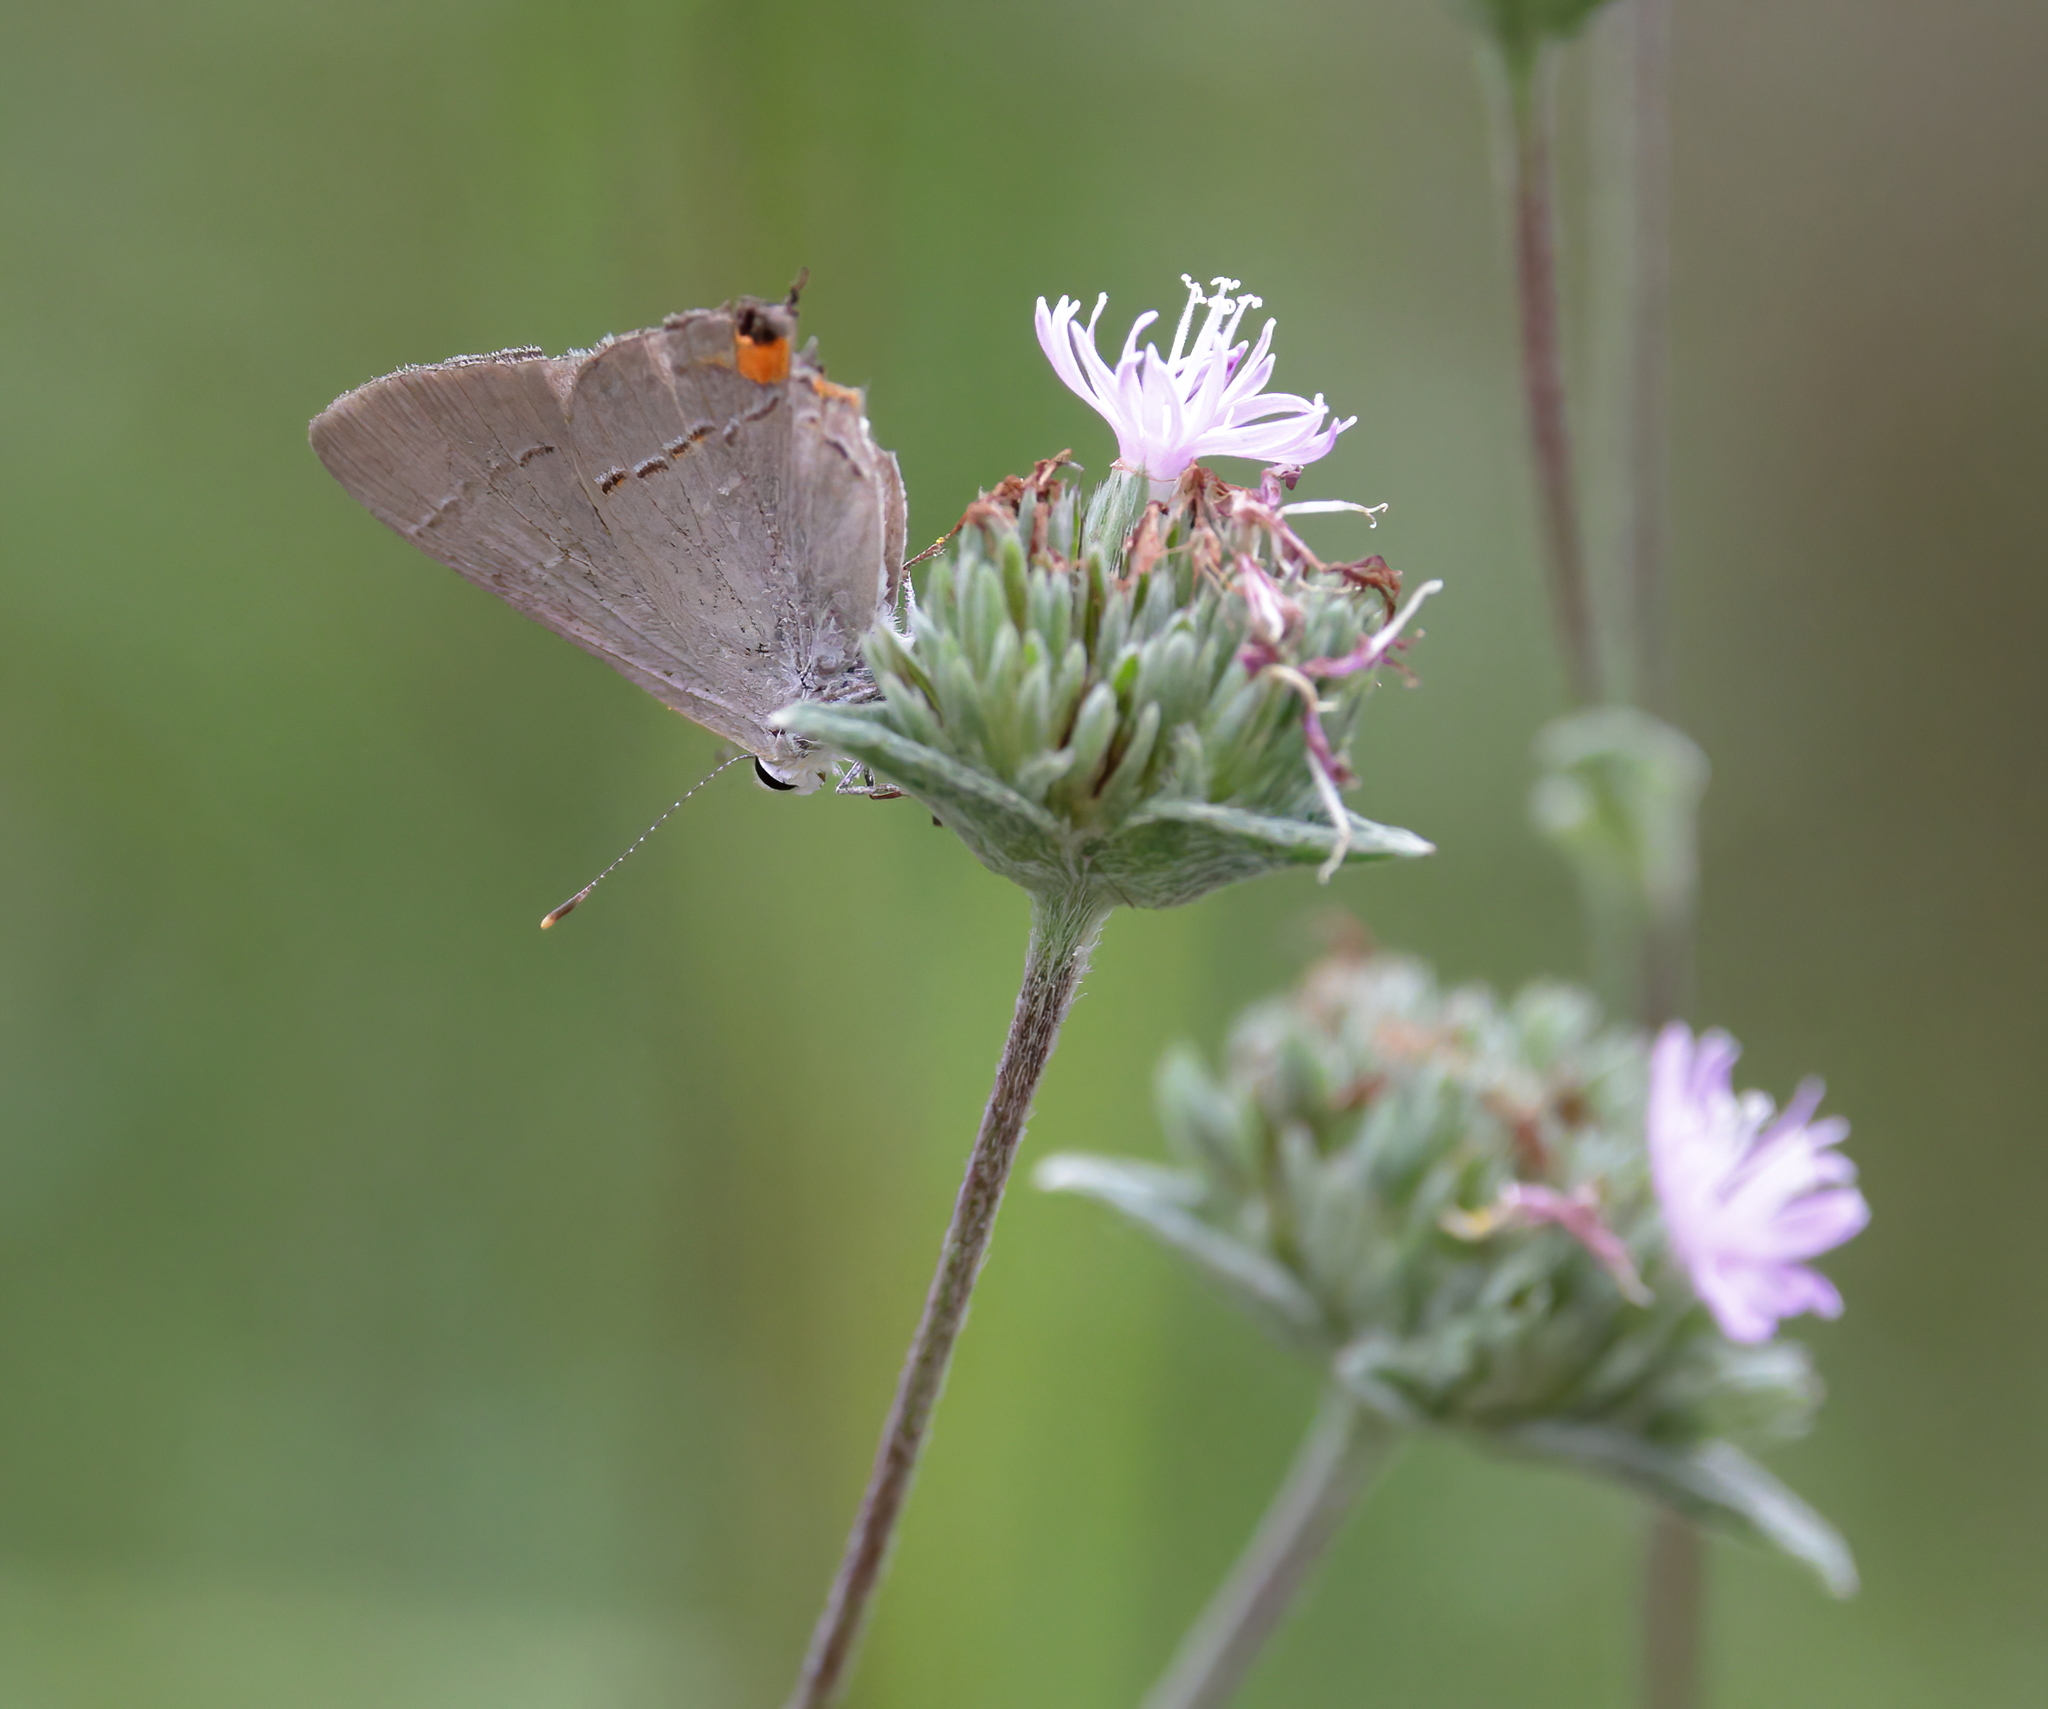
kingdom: Animalia
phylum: Arthropoda
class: Insecta
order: Lepidoptera
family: Lycaenidae
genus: Strymon
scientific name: Strymon melinus
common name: Gray hairstreak
